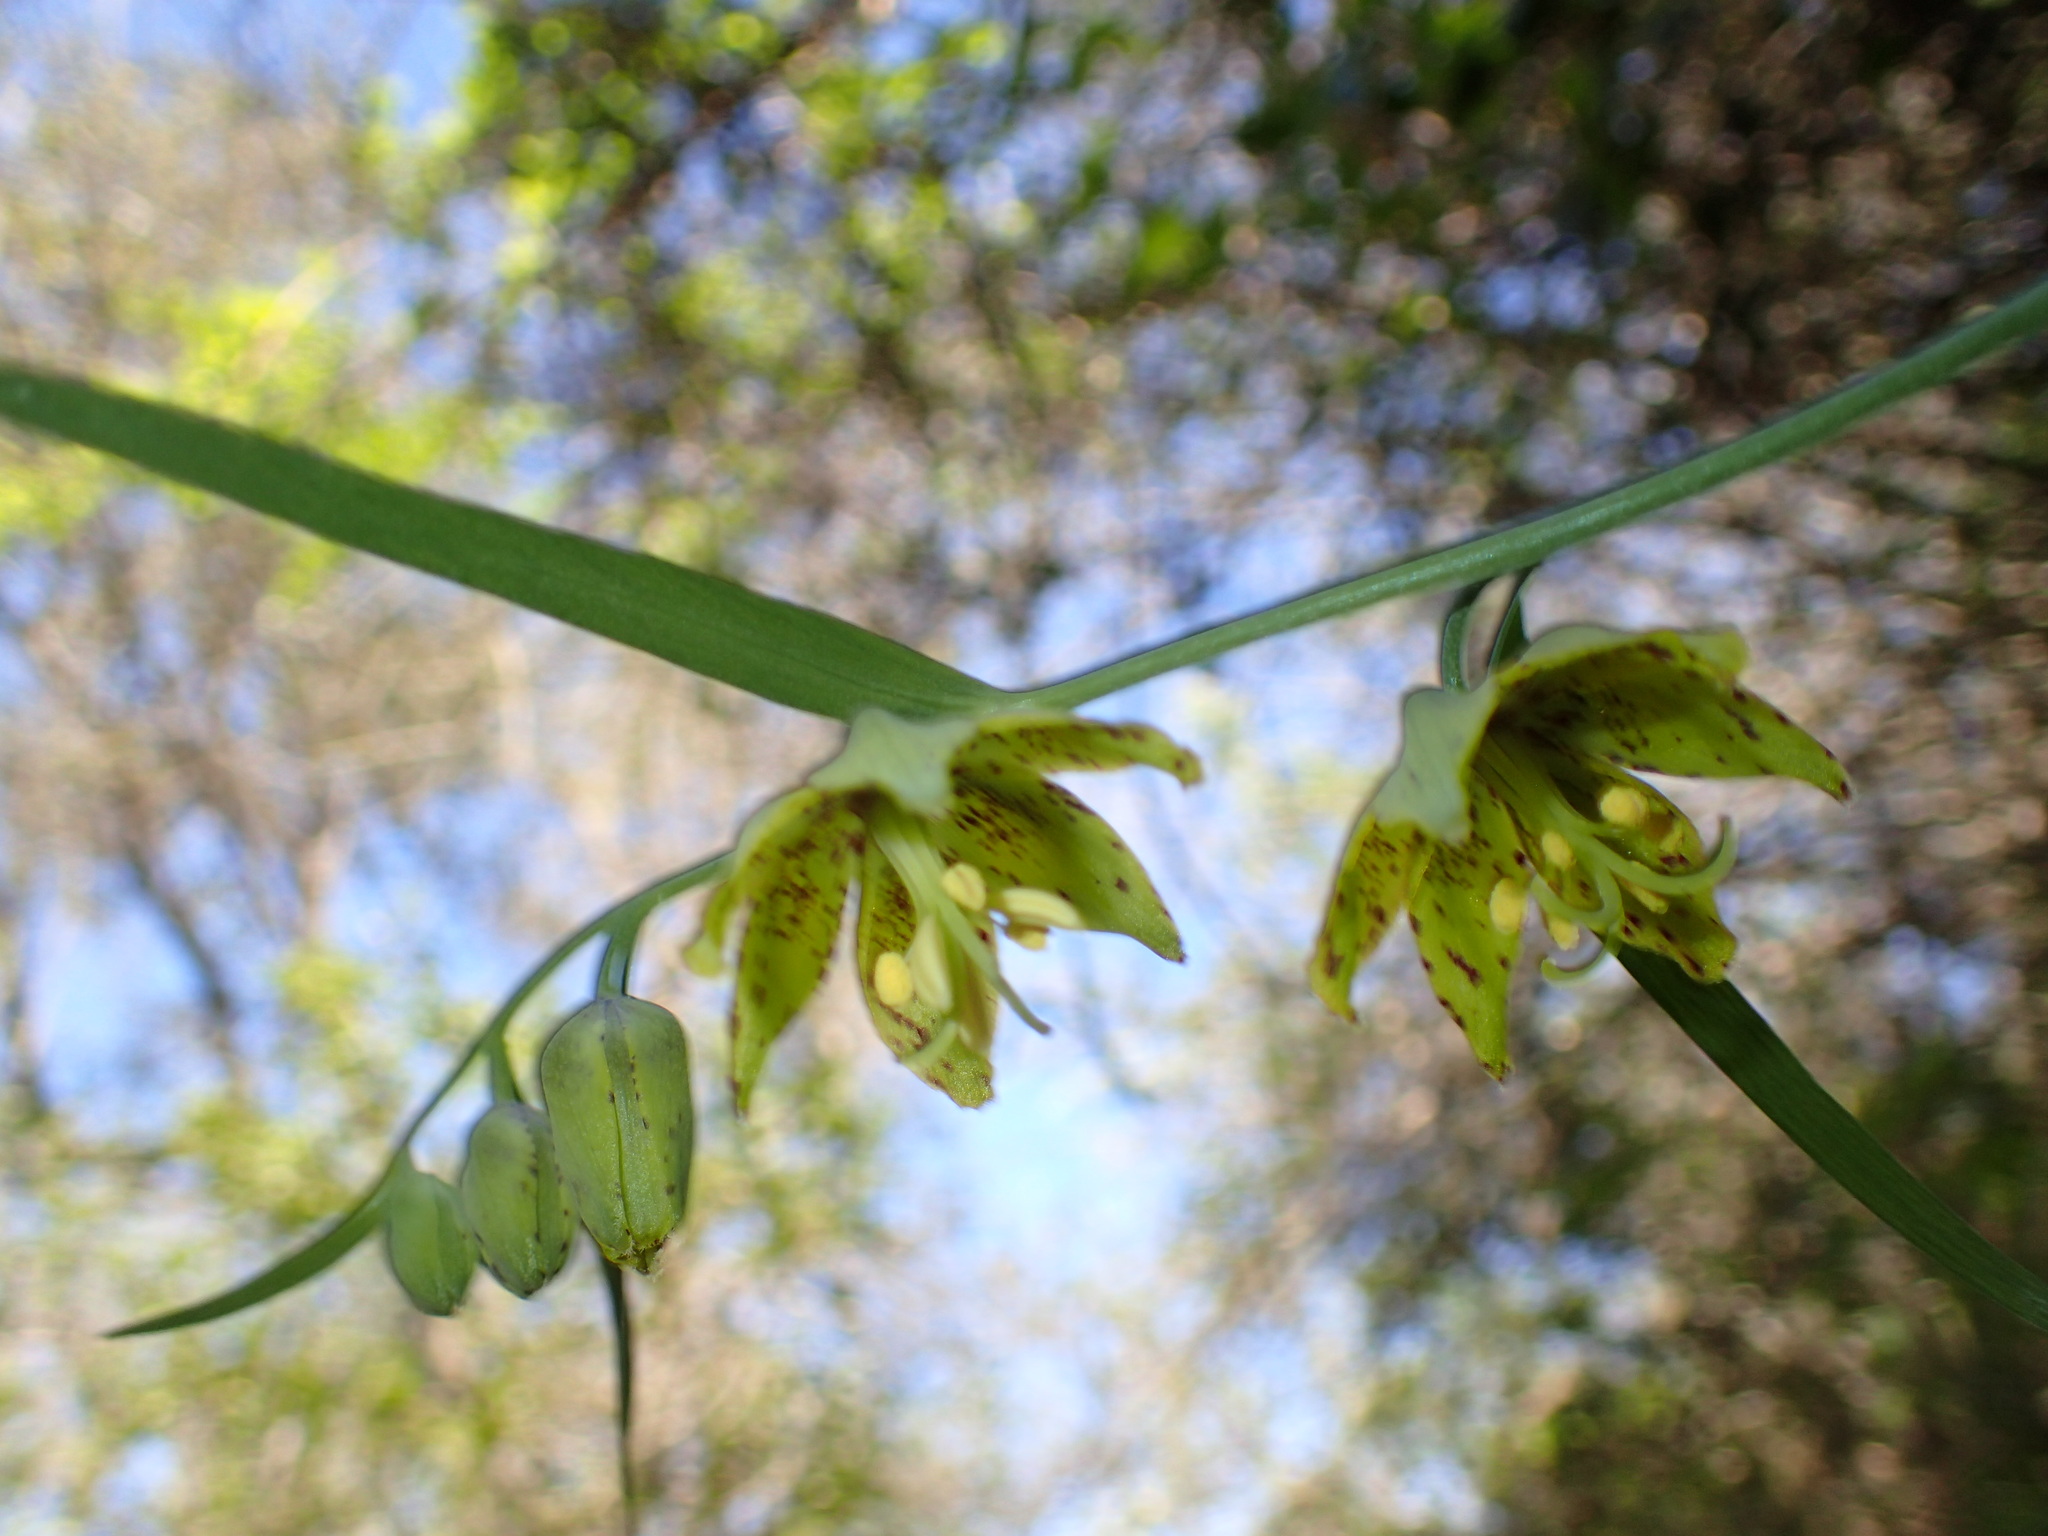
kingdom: Plantae
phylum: Tracheophyta
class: Liliopsida
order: Liliales
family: Liliaceae
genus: Fritillaria
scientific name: Fritillaria ojaiensis
